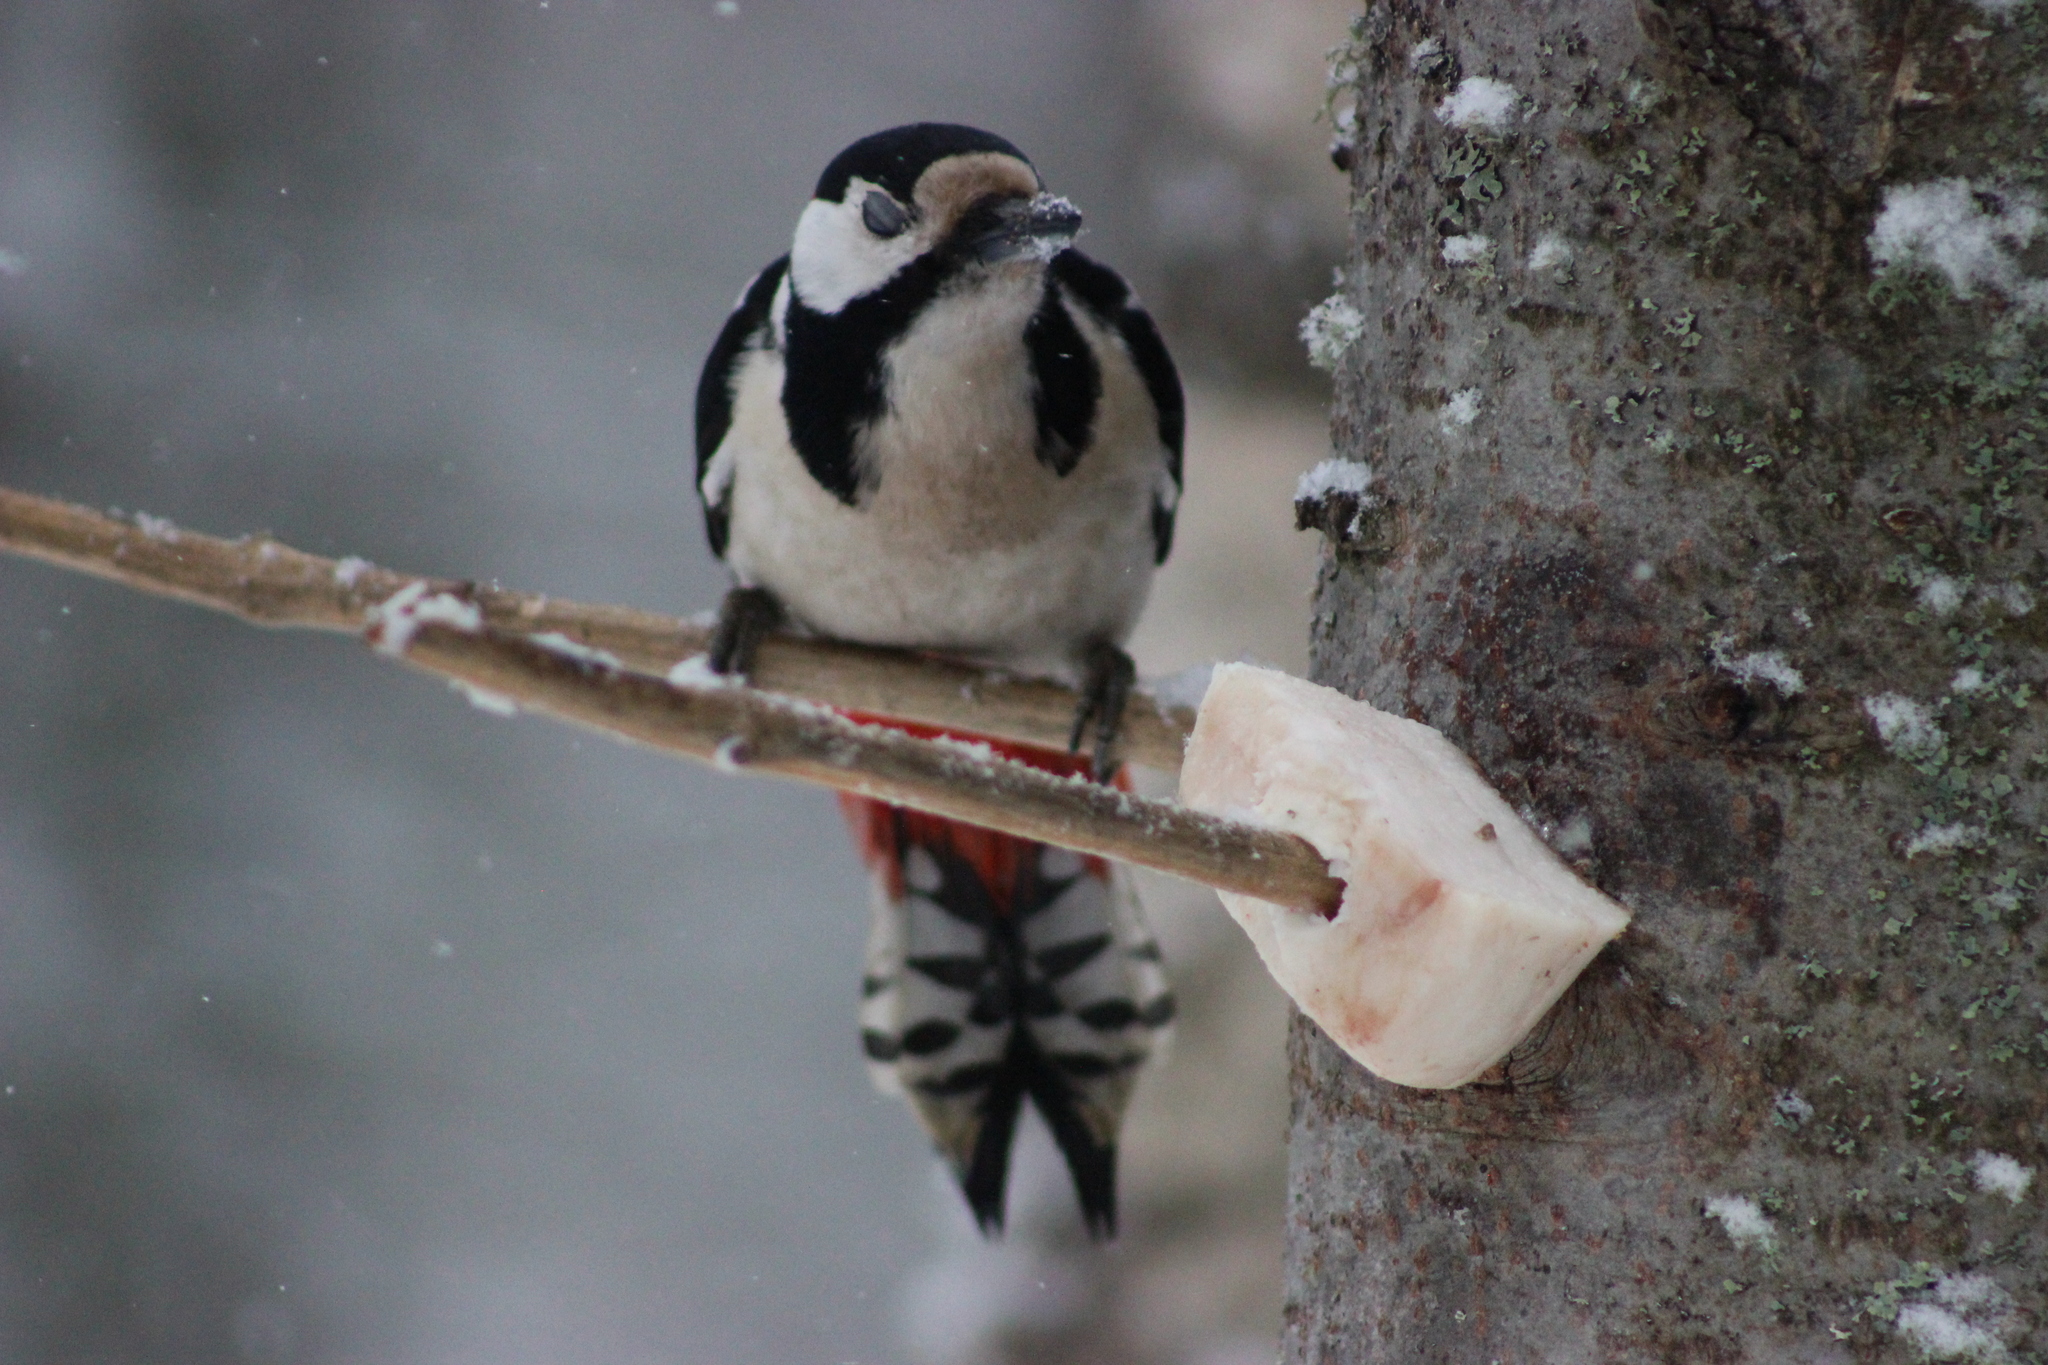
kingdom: Animalia
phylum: Chordata
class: Aves
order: Piciformes
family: Picidae
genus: Dendrocopos
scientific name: Dendrocopos major
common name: Great spotted woodpecker
